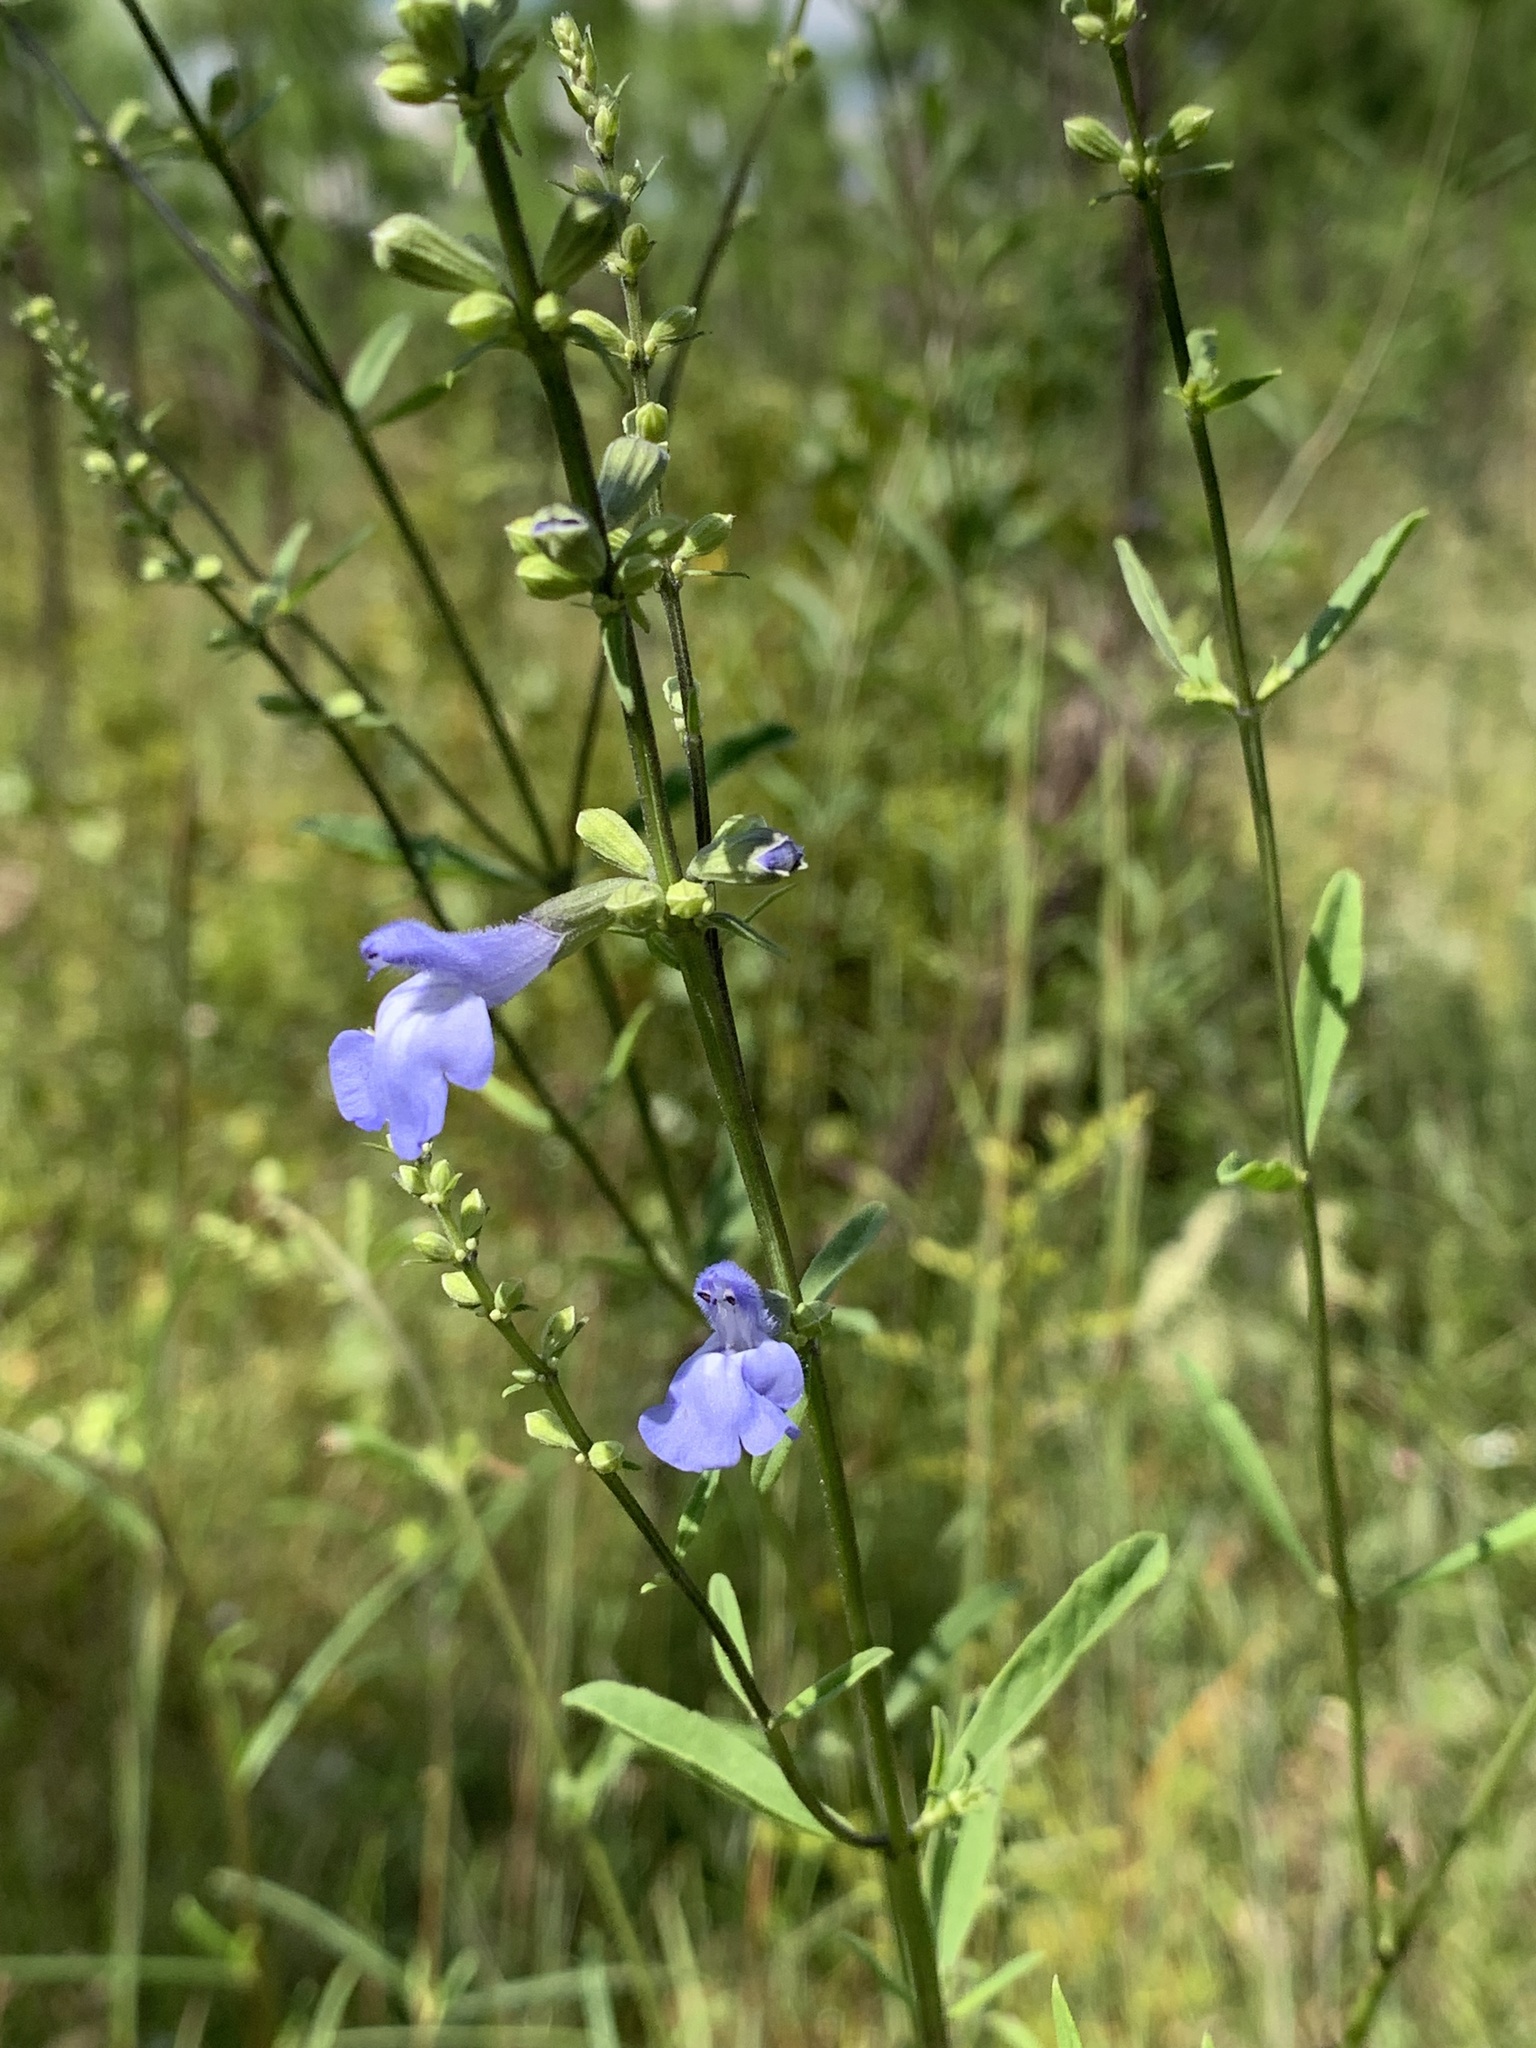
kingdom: Plantae
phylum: Tracheophyta
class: Magnoliopsida
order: Lamiales
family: Lamiaceae
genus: Salvia
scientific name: Salvia azurea
